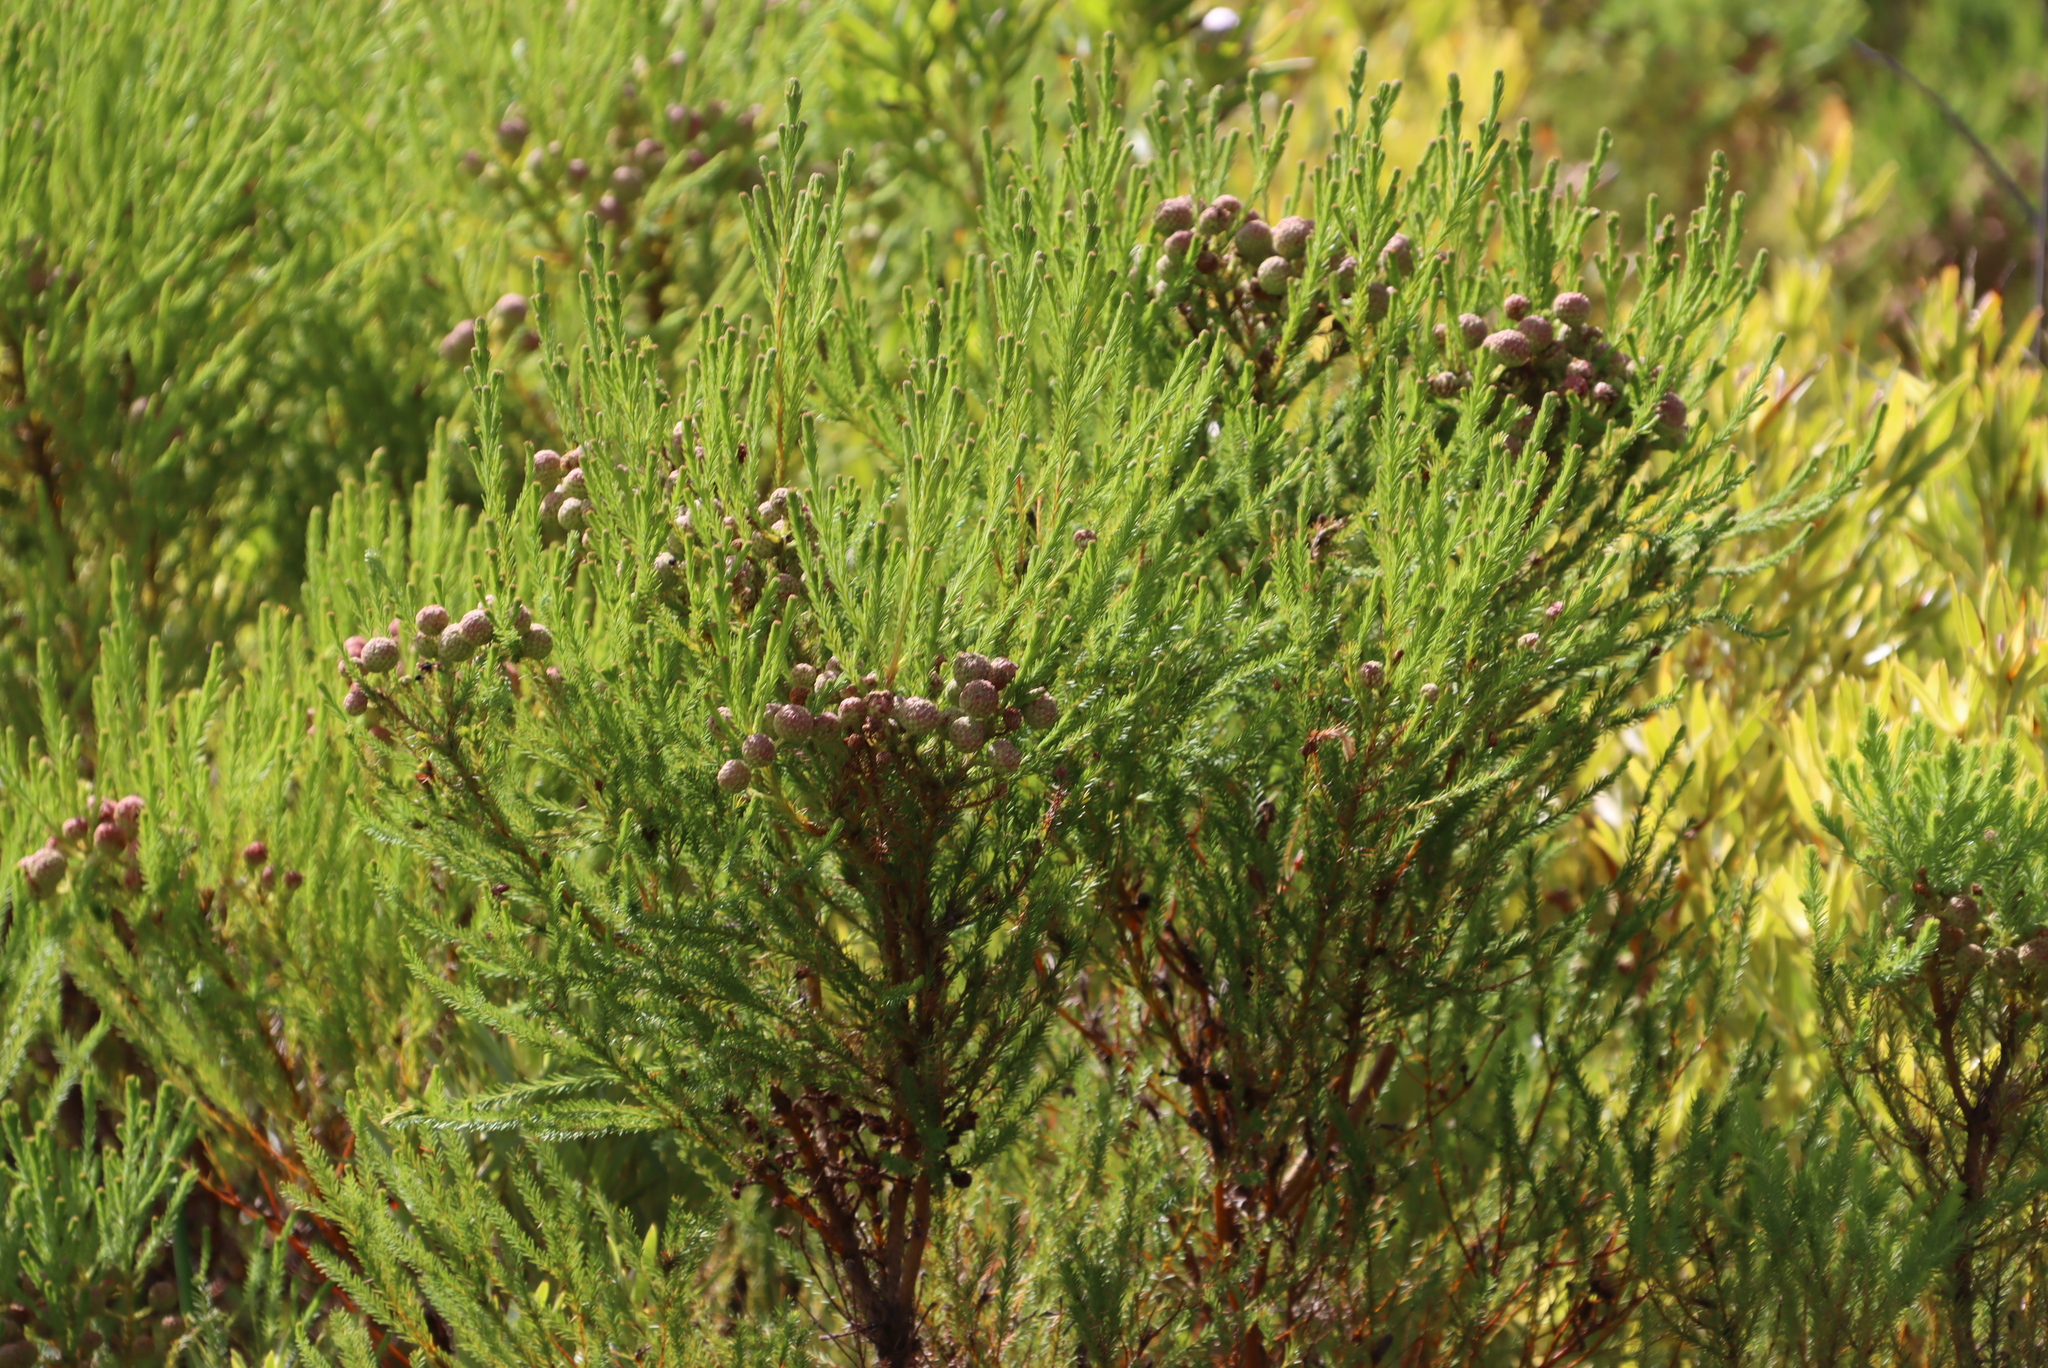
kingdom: Plantae
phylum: Tracheophyta
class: Magnoliopsida
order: Bruniales
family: Bruniaceae
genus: Berzelia
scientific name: Berzelia lanuginosa
